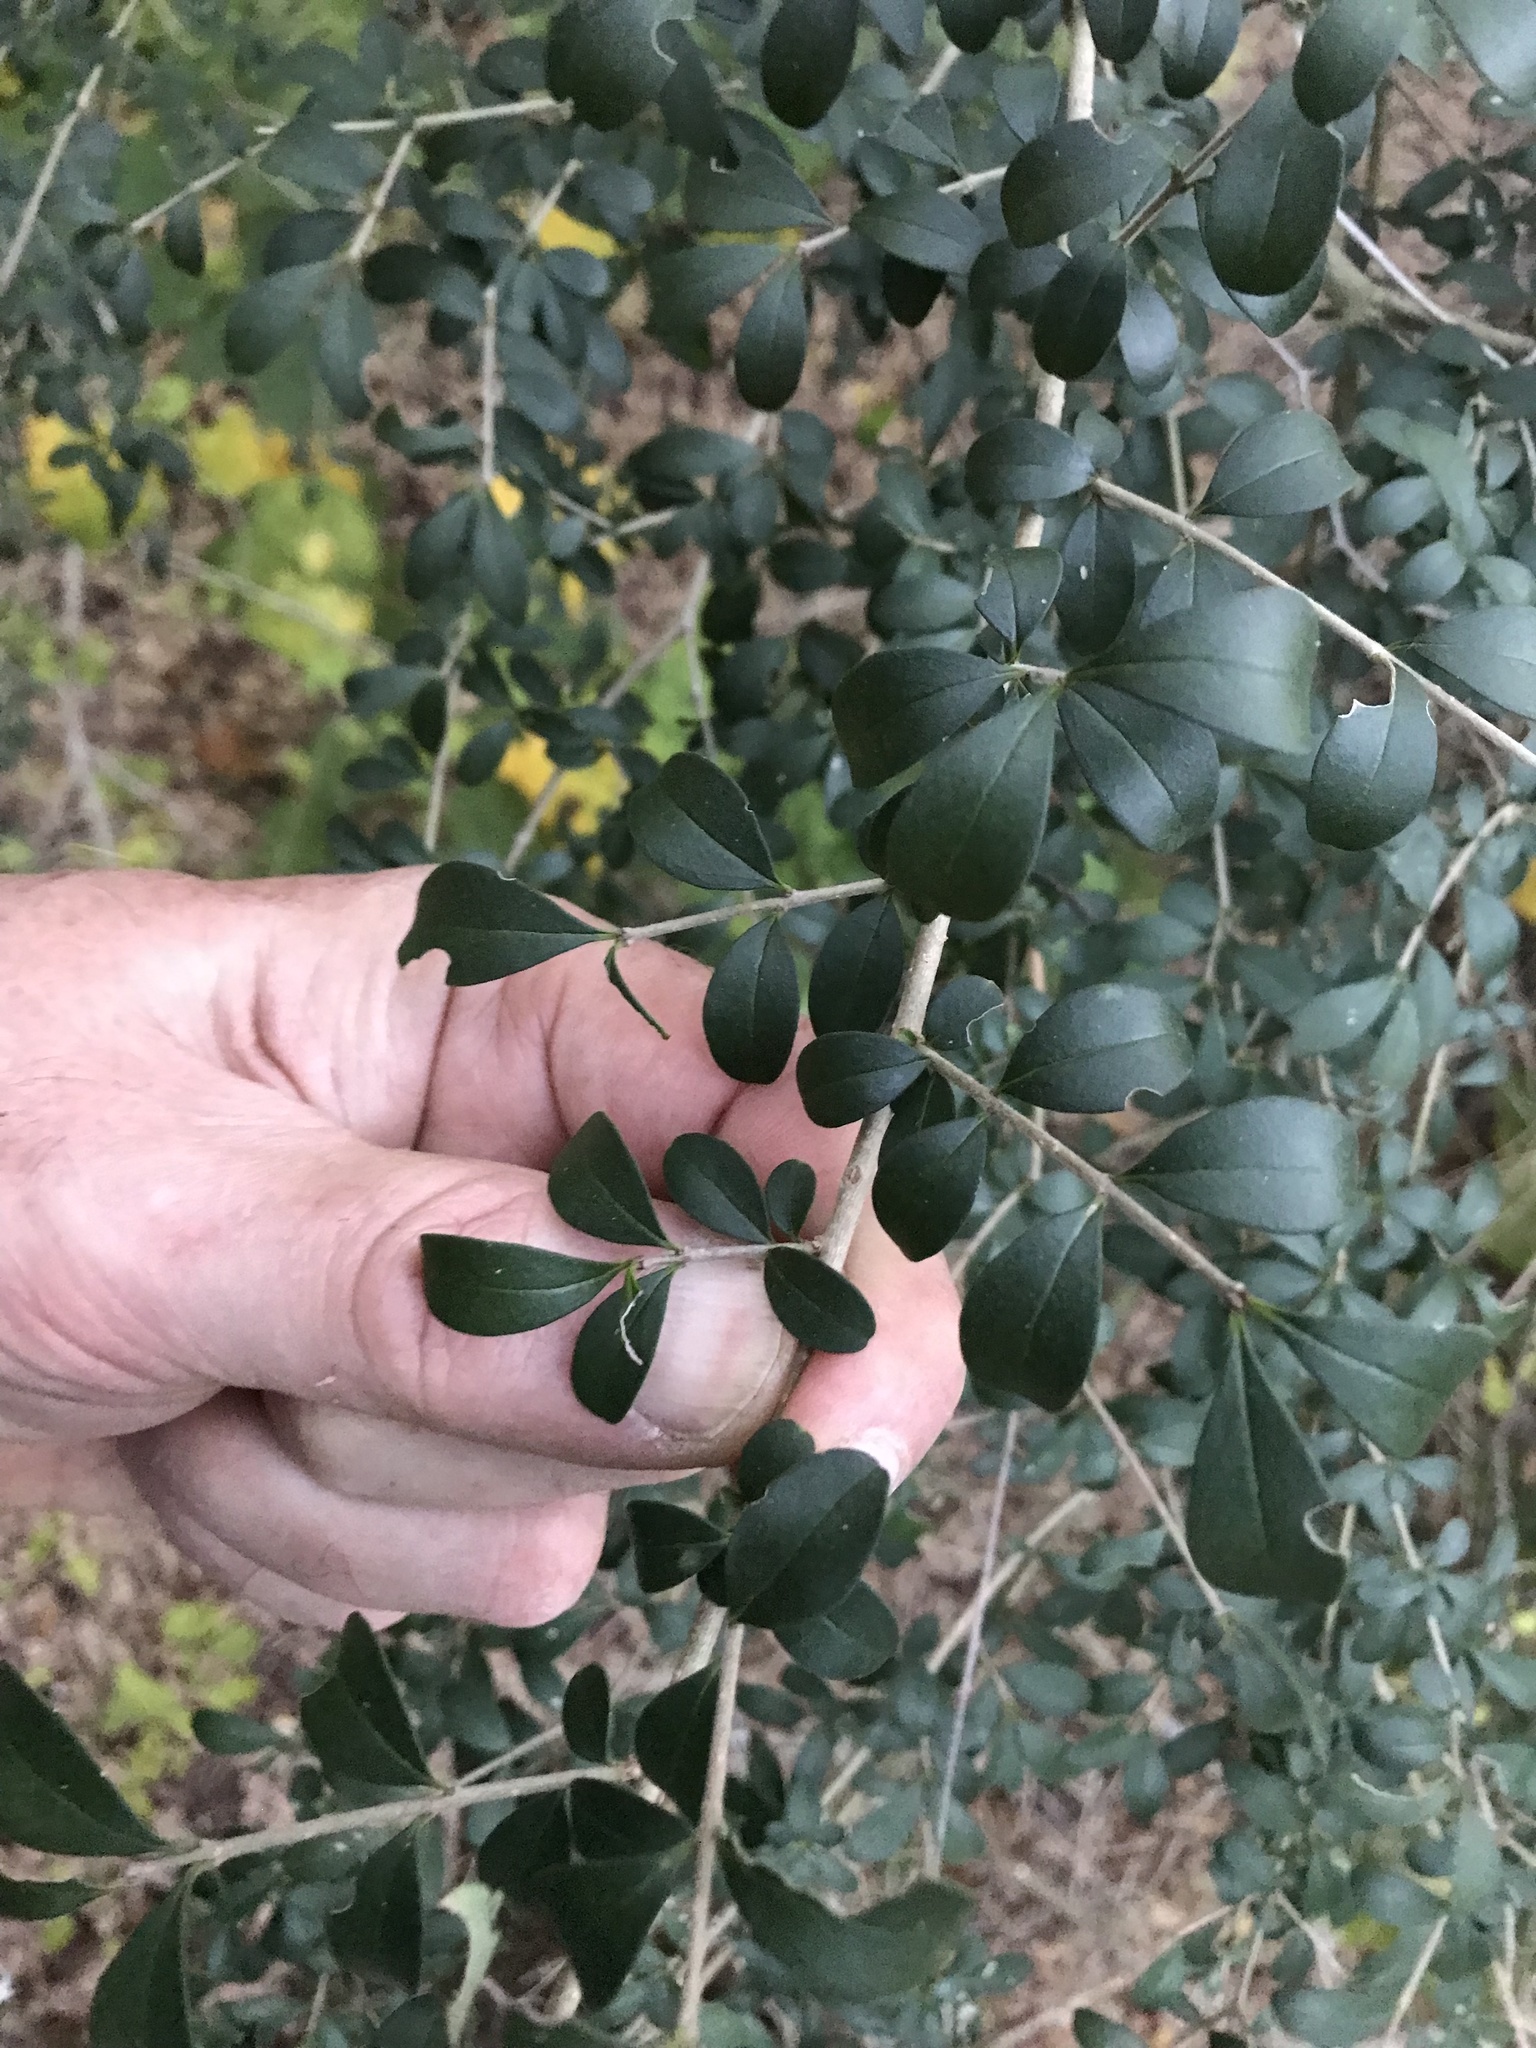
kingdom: Plantae
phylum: Tracheophyta
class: Magnoliopsida
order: Lamiales
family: Oleaceae
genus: Ligustrum
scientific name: Ligustrum quihoui
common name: Waxyleaf privet
